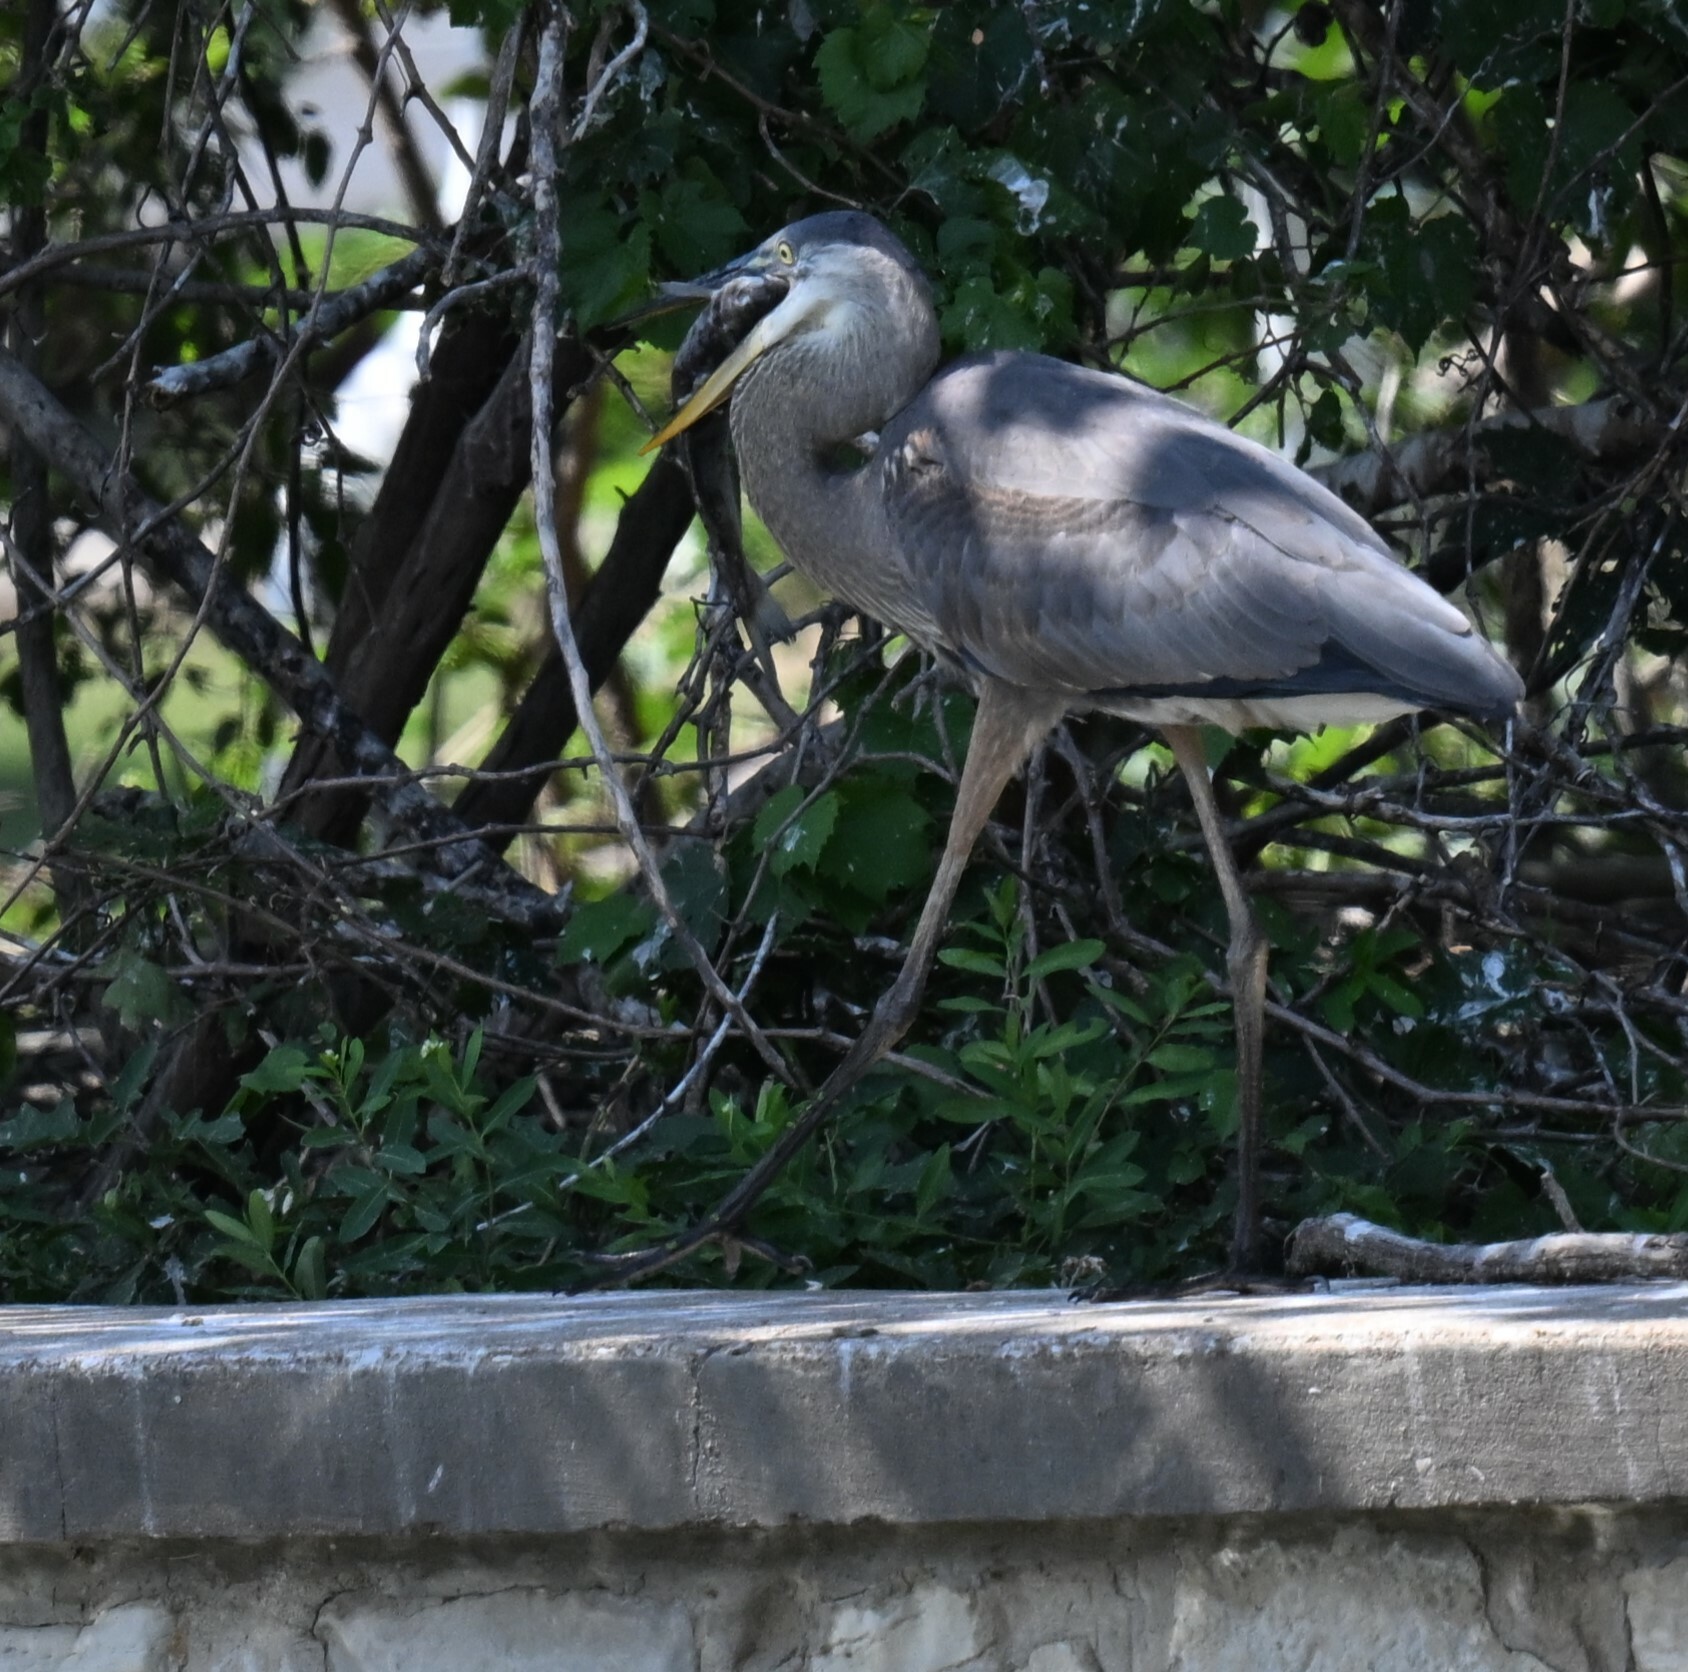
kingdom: Animalia
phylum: Chordata
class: Aves
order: Pelecaniformes
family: Ardeidae
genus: Ardea
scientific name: Ardea herodias
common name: Great blue heron
